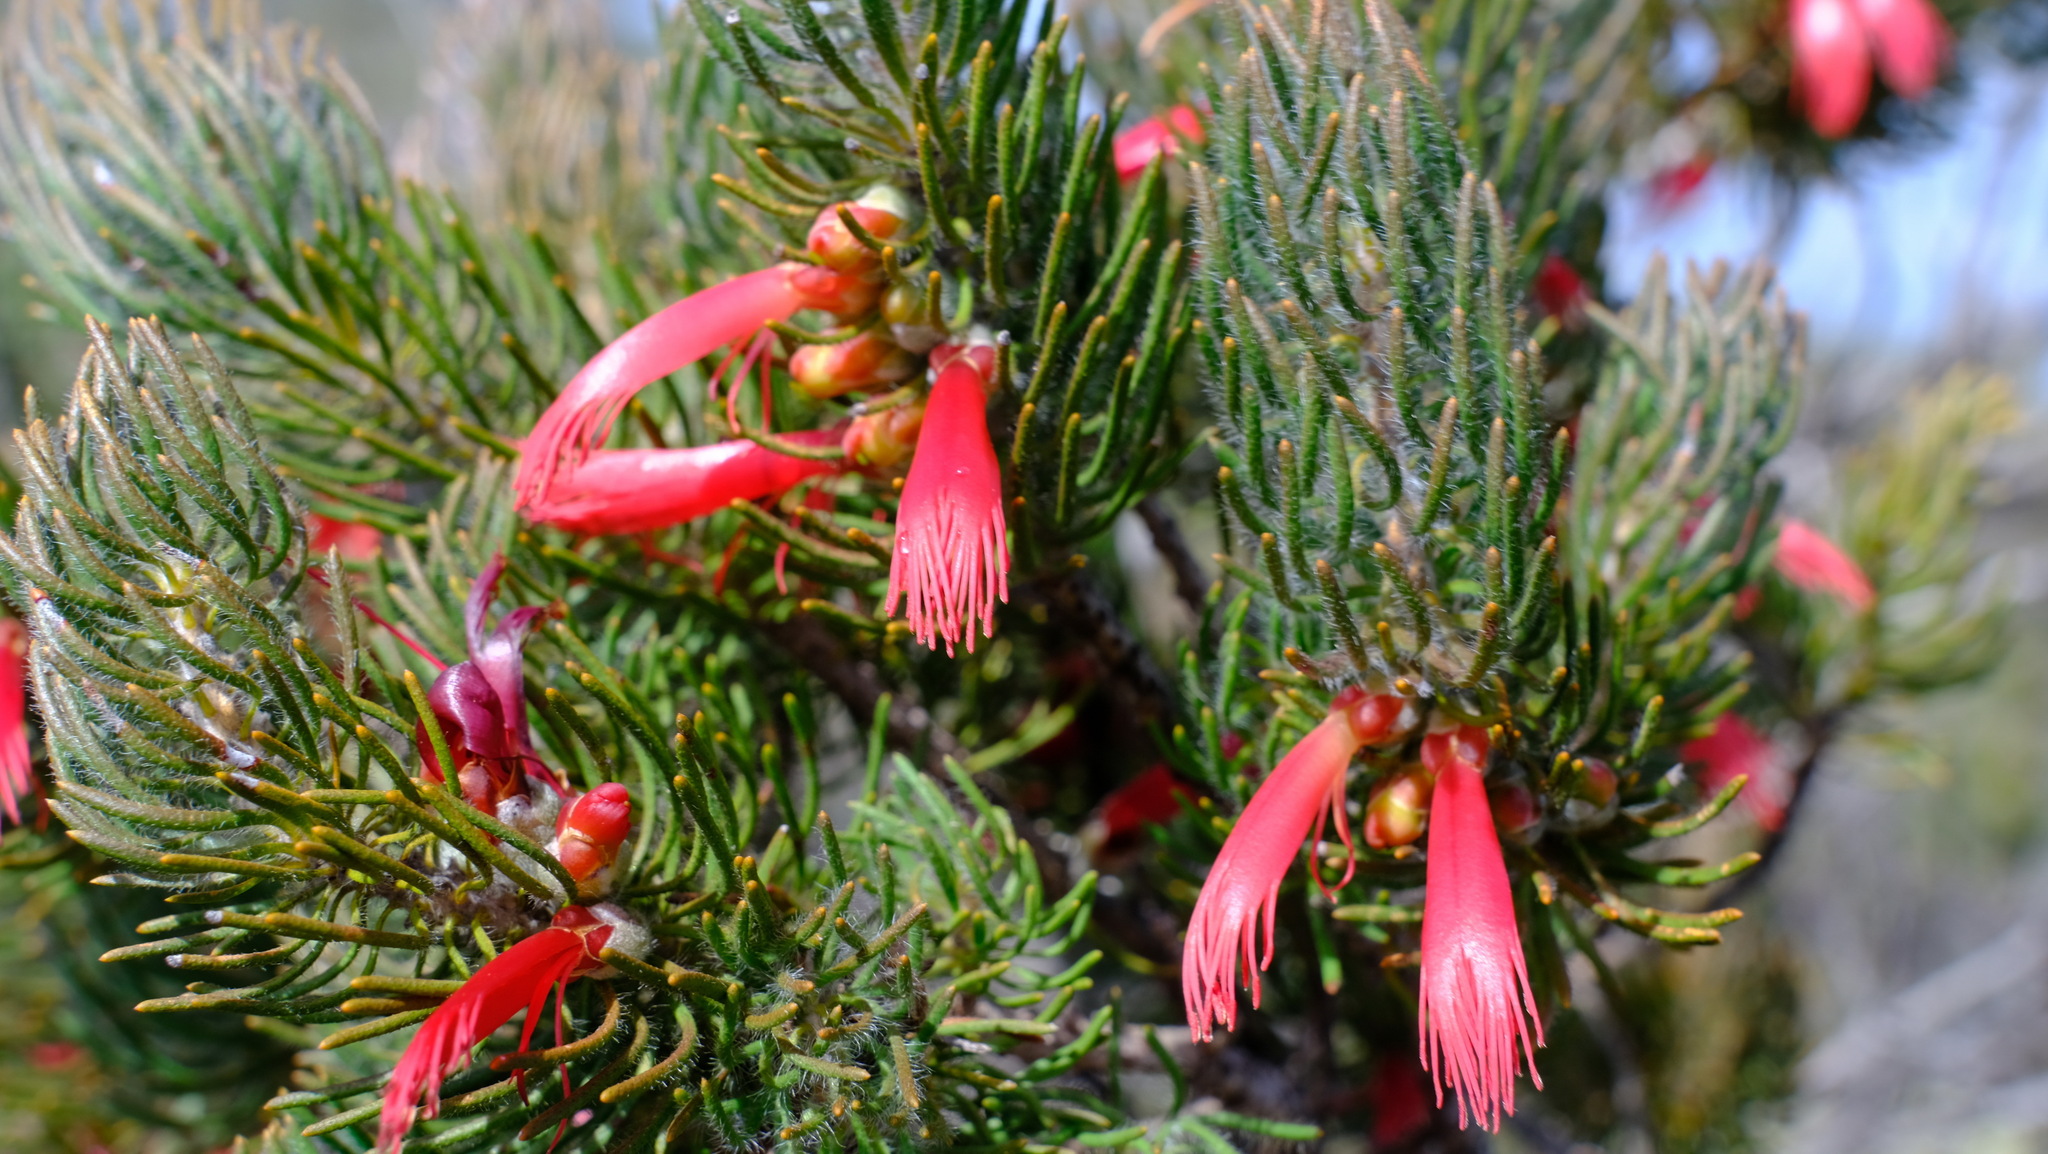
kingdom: Plantae
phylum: Tracheophyta
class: Magnoliopsida
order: Myrtales
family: Myrtaceae
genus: Melaleuca
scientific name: Melaleuca cruenta
